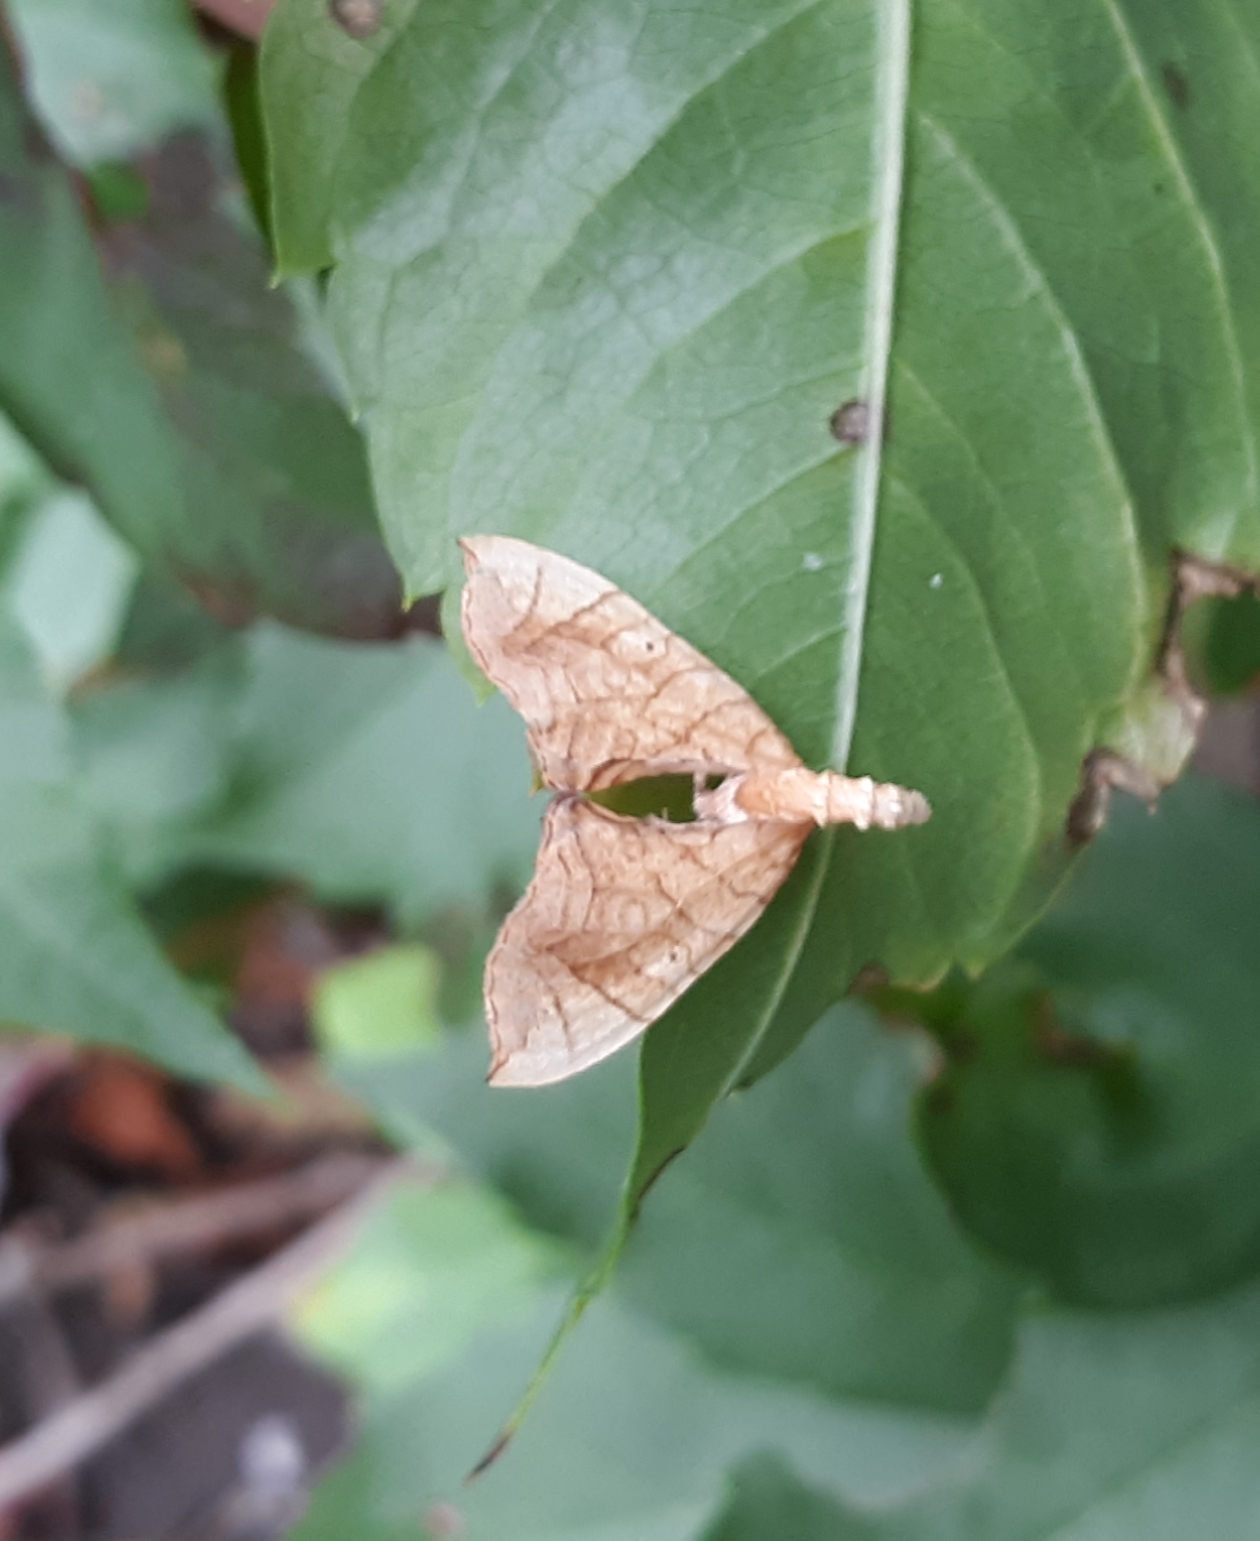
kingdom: Animalia
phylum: Arthropoda
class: Insecta
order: Lepidoptera
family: Geometridae
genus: Eulithis
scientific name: Eulithis
